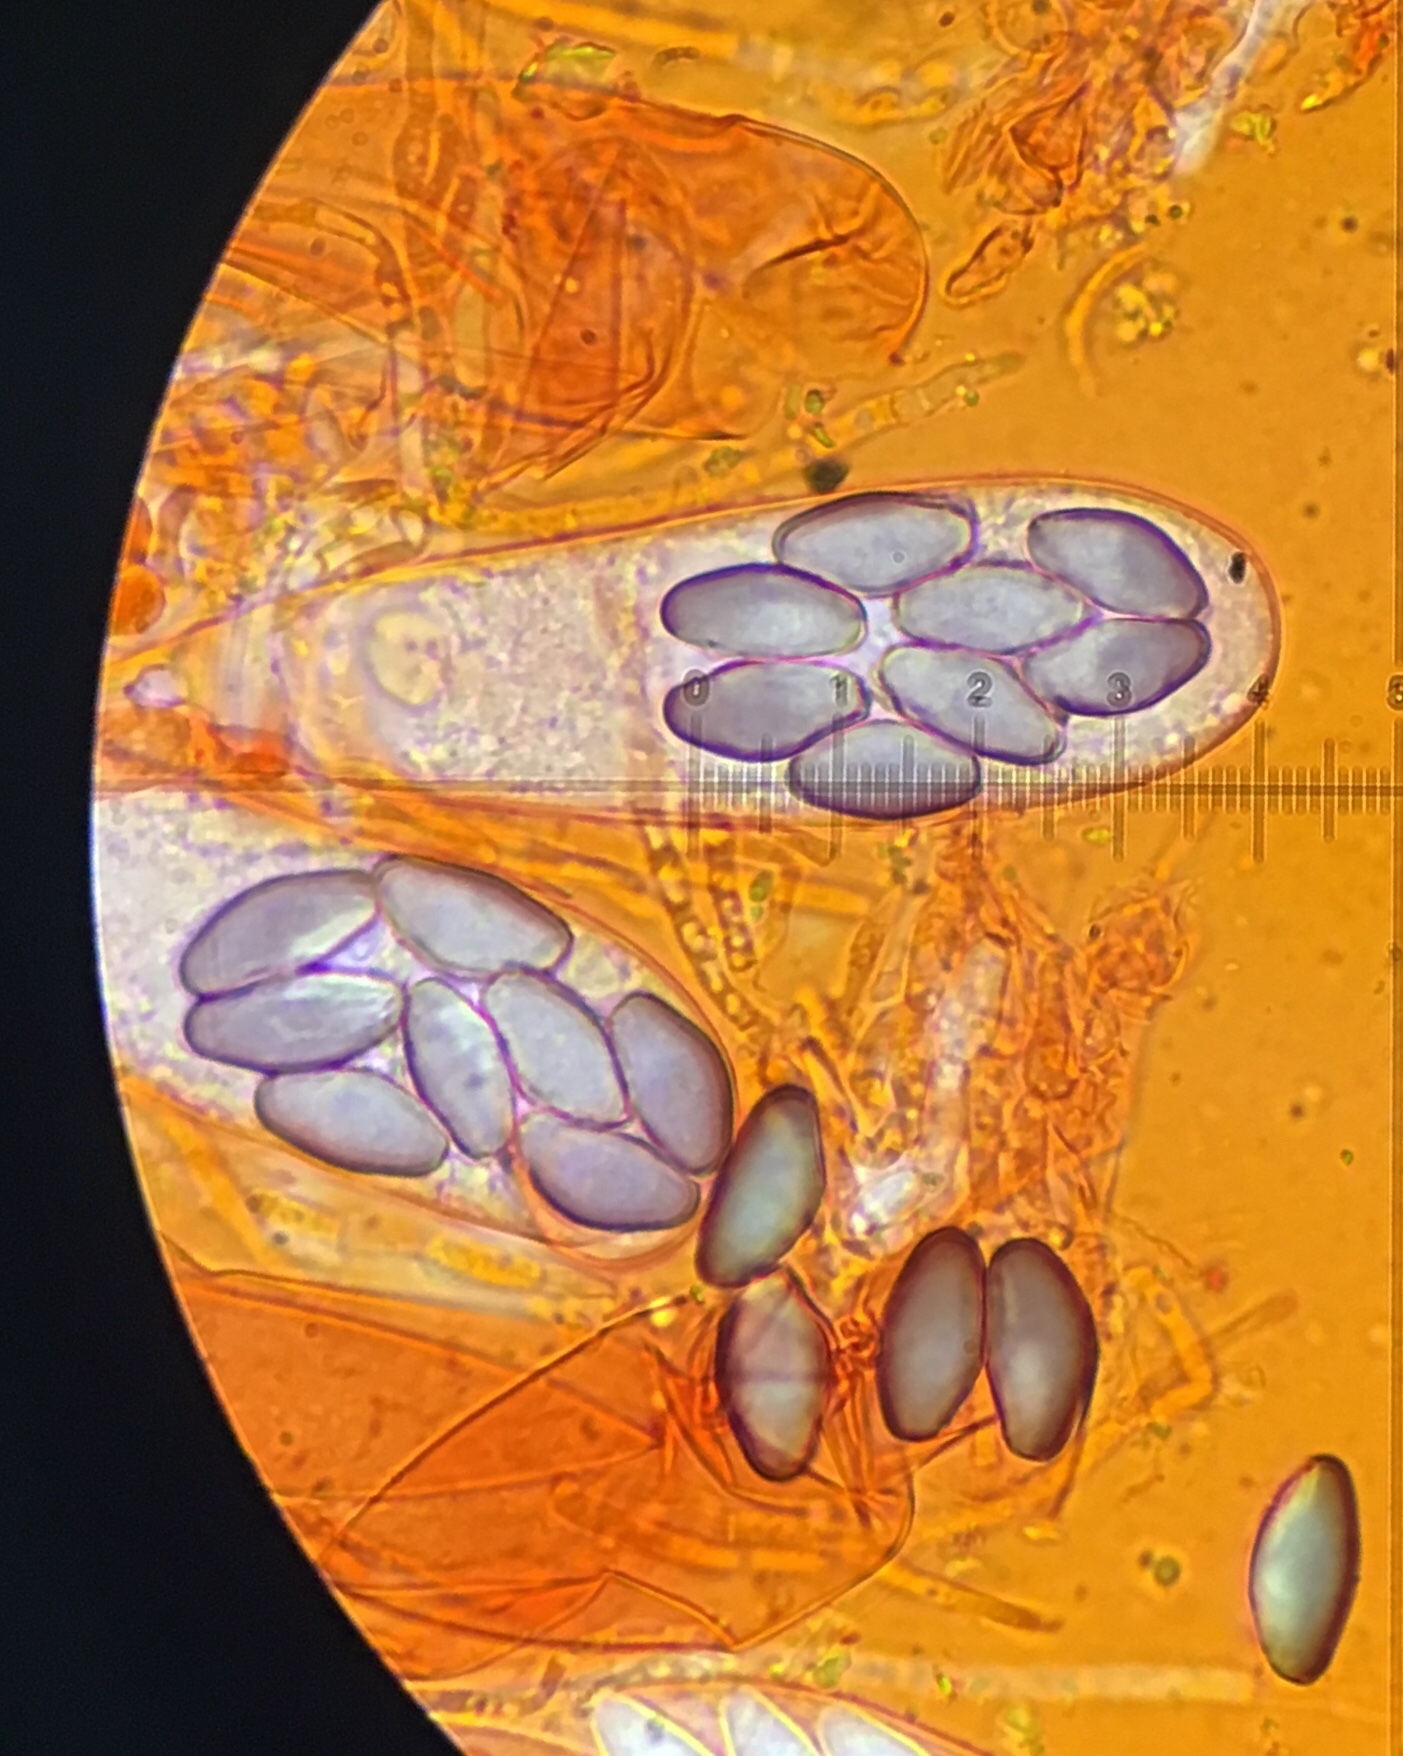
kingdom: Fungi
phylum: Ascomycota
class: Pezizomycetes
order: Pezizales
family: Ascobolaceae
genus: Saccobolus
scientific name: Saccobolus michiganensis
